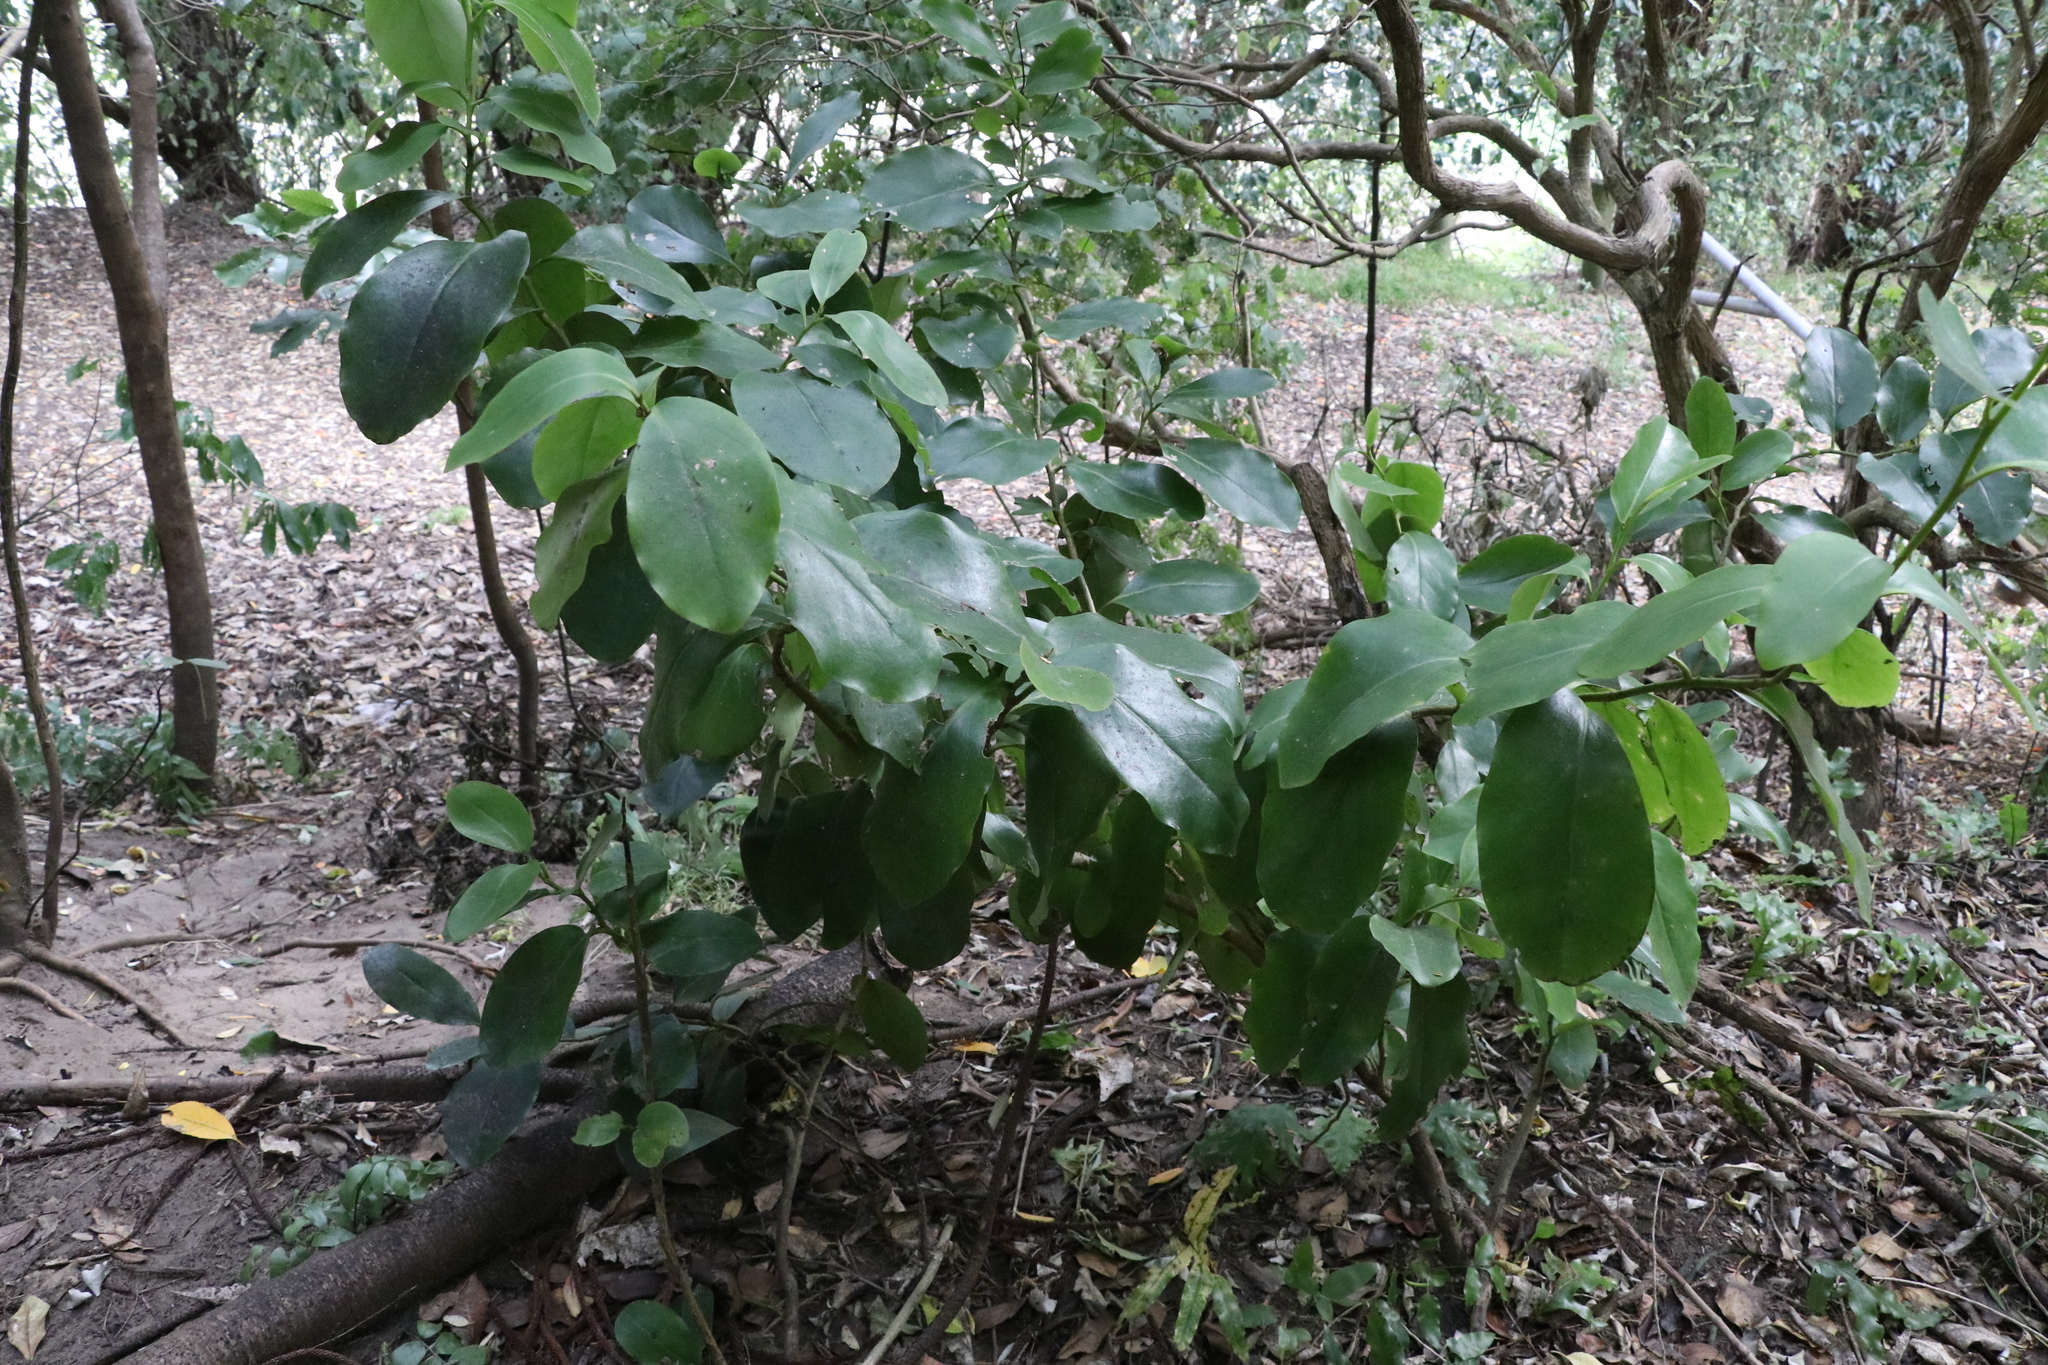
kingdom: Plantae
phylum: Tracheophyta
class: Magnoliopsida
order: Apiales
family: Griseliniaceae
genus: Griselinia
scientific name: Griselinia littoralis
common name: New zealand broadleaf
